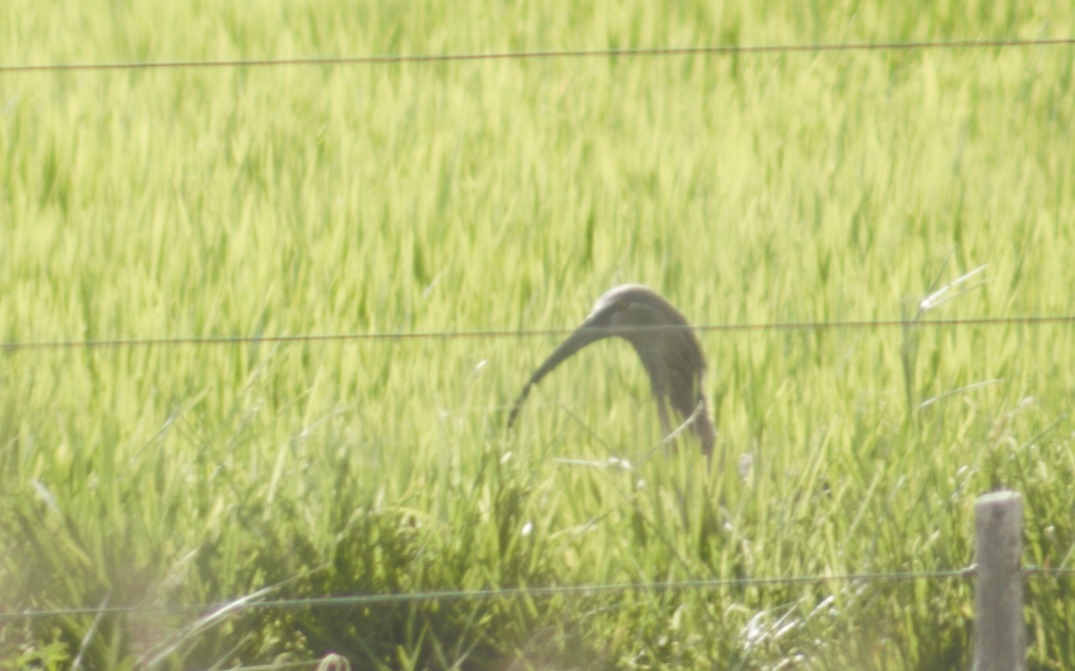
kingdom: Animalia
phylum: Chordata
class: Aves
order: Pelecaniformes
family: Threskiornithidae
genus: Theristicus
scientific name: Theristicus caerulescens
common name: Plumbeous ibis
